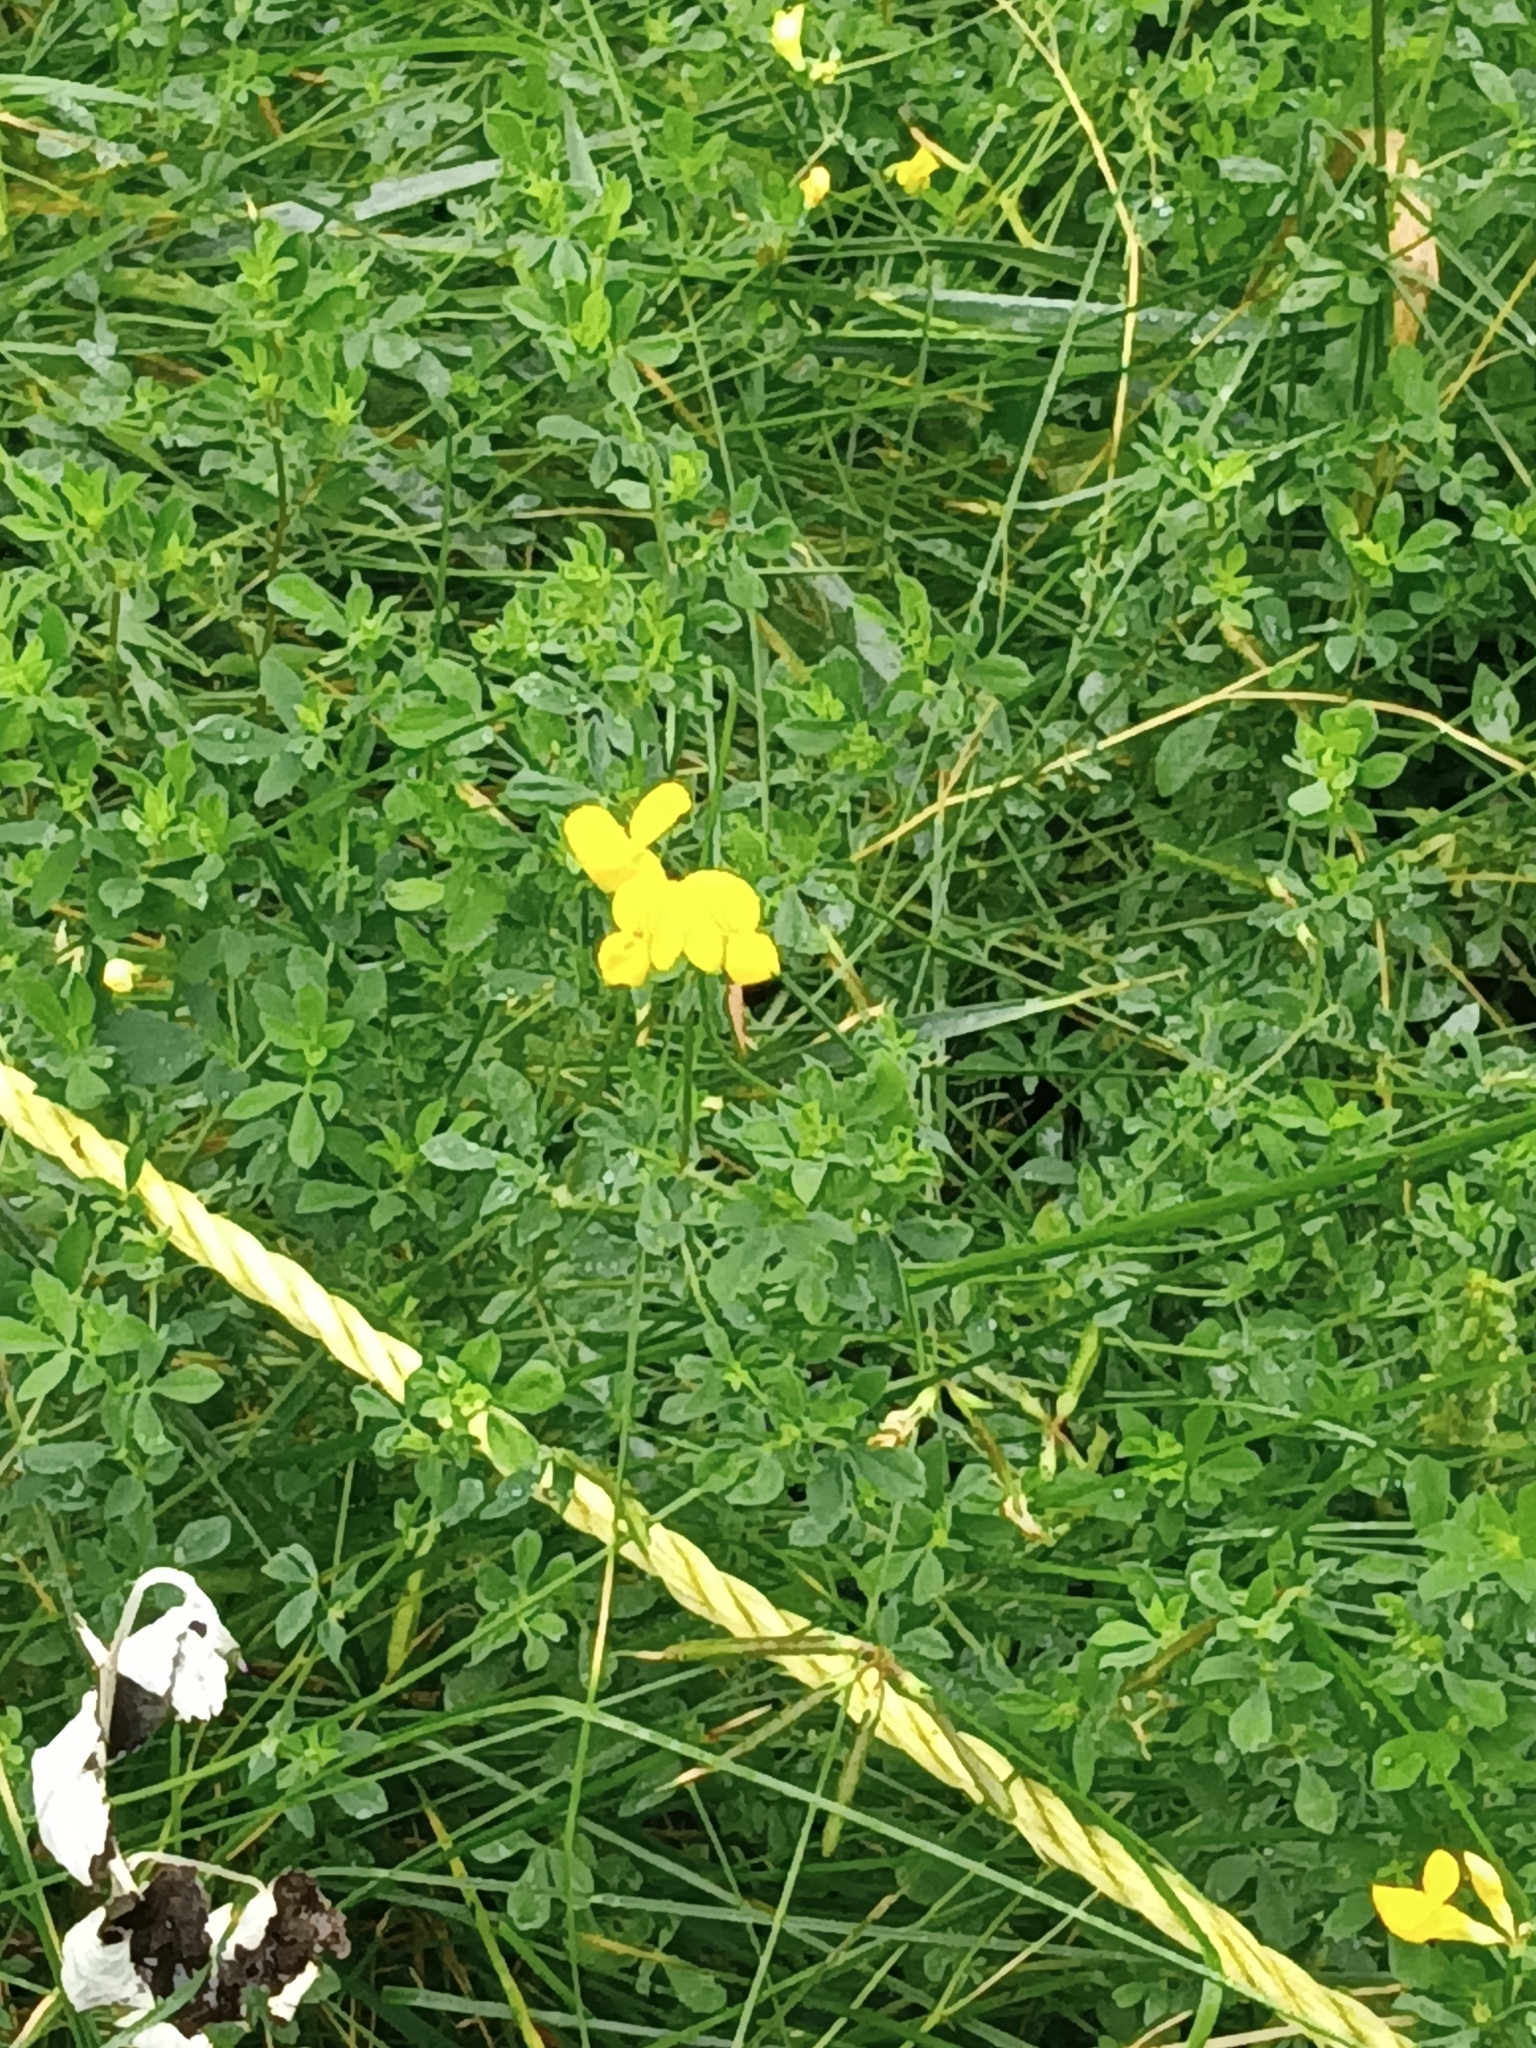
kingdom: Plantae
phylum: Tracheophyta
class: Magnoliopsida
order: Fabales
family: Fabaceae
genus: Lotus
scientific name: Lotus corniculatus
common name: Common bird's-foot-trefoil
